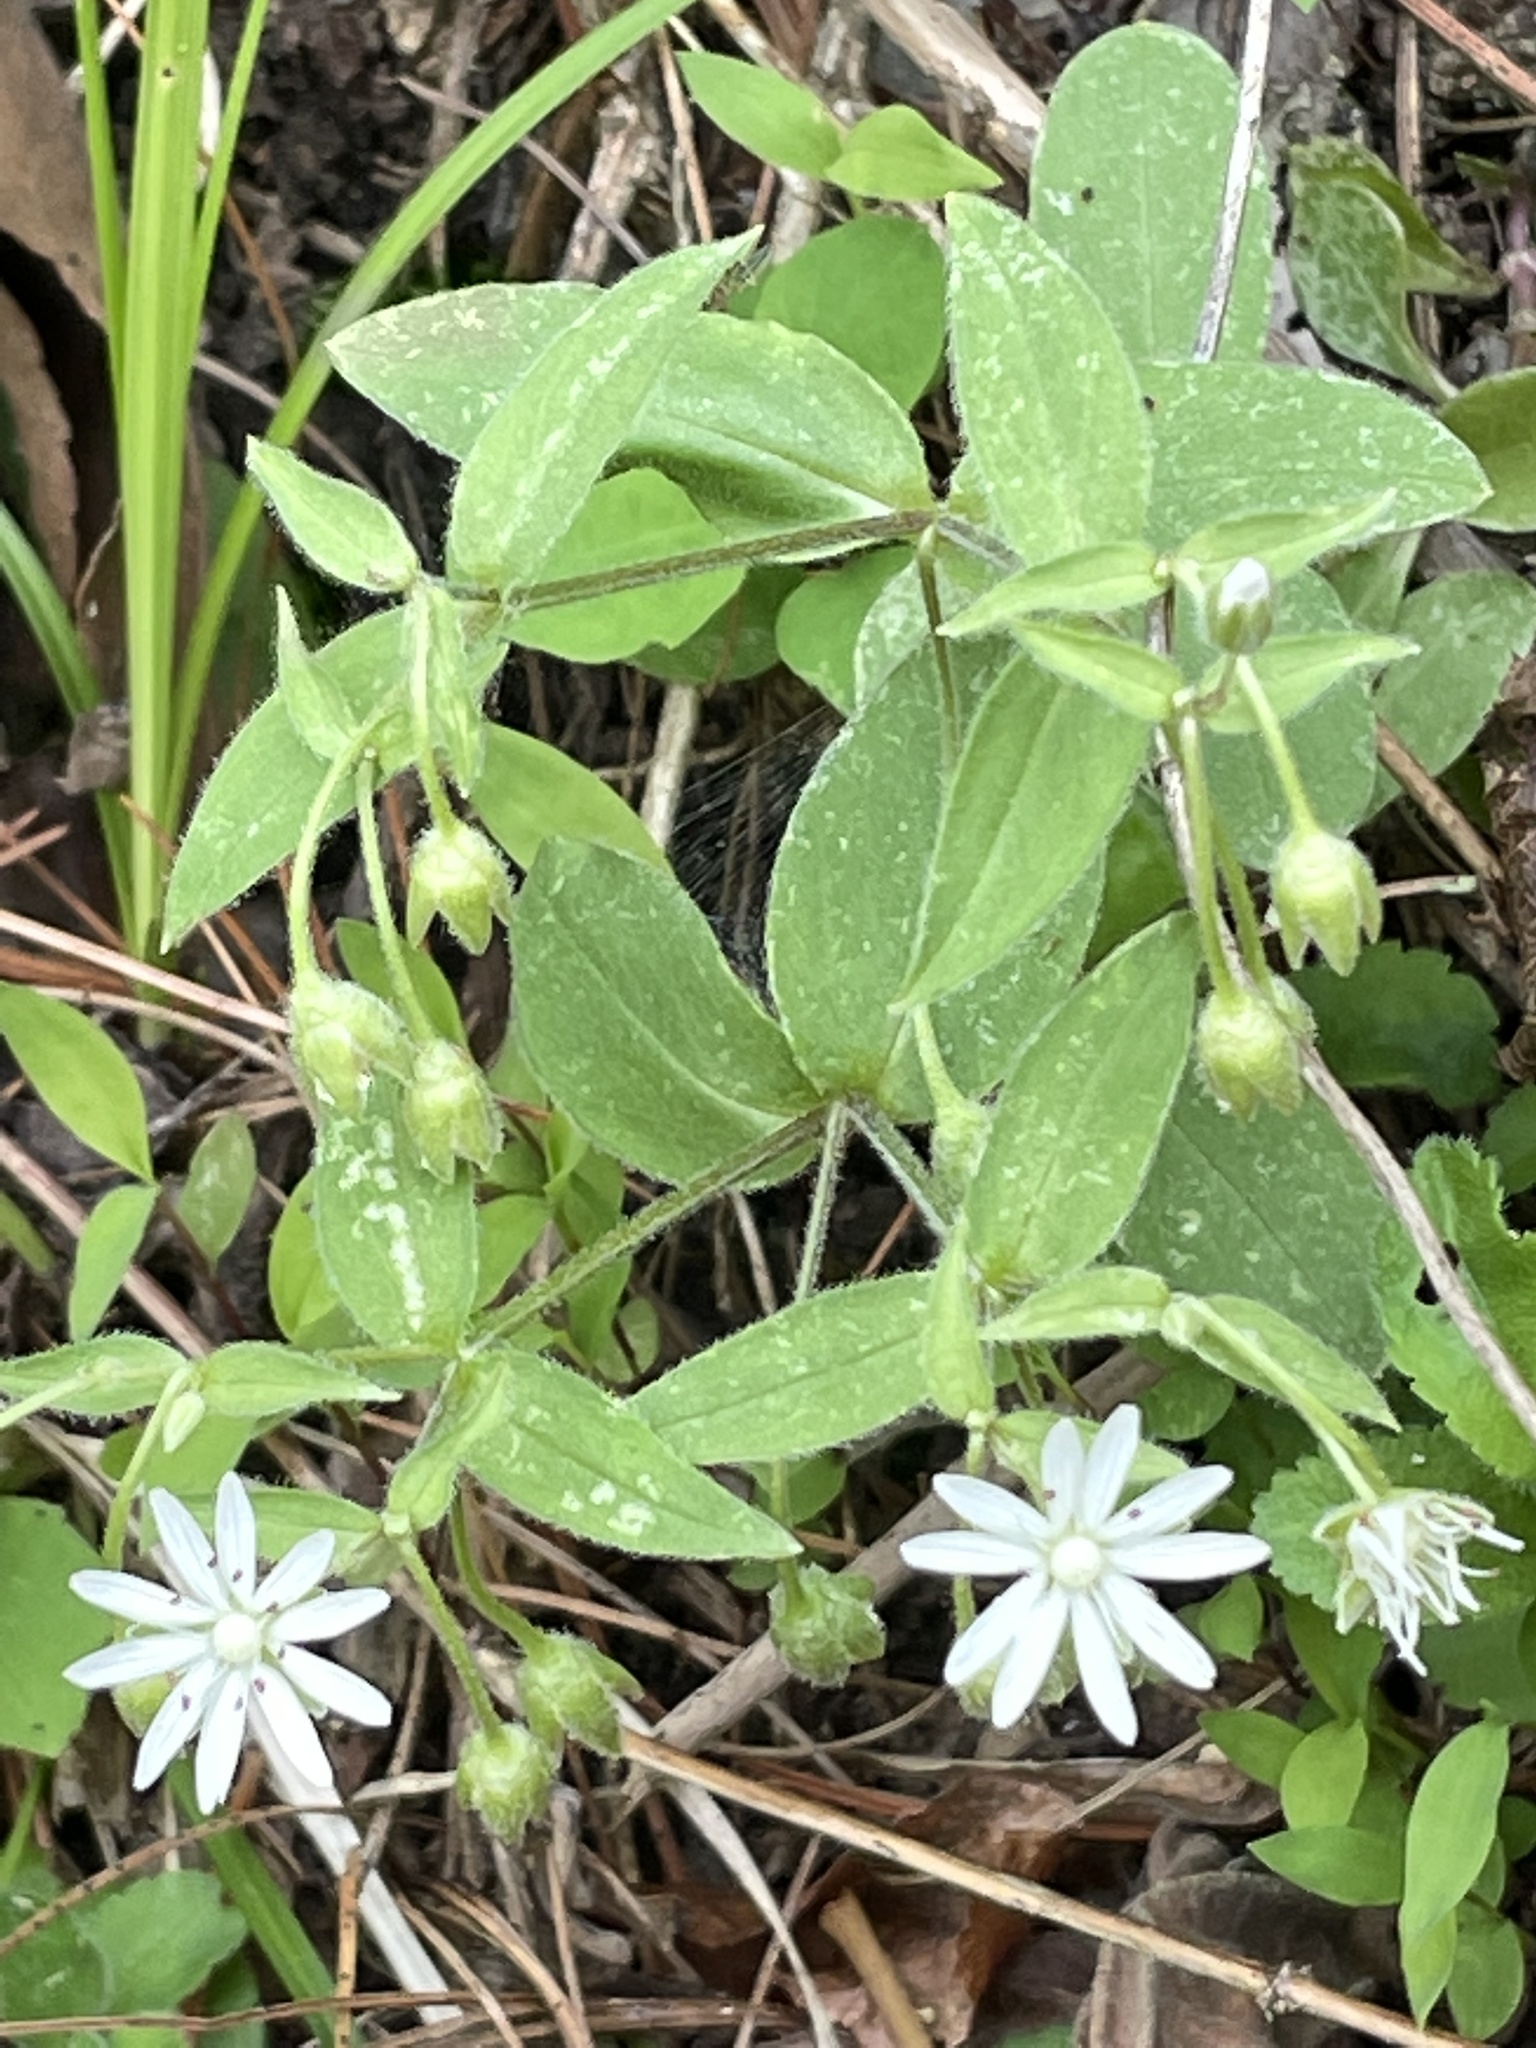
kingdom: Plantae
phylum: Tracheophyta
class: Magnoliopsida
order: Caryophyllales
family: Caryophyllaceae
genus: Stellaria
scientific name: Stellaria pubera
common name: Star chickweed
